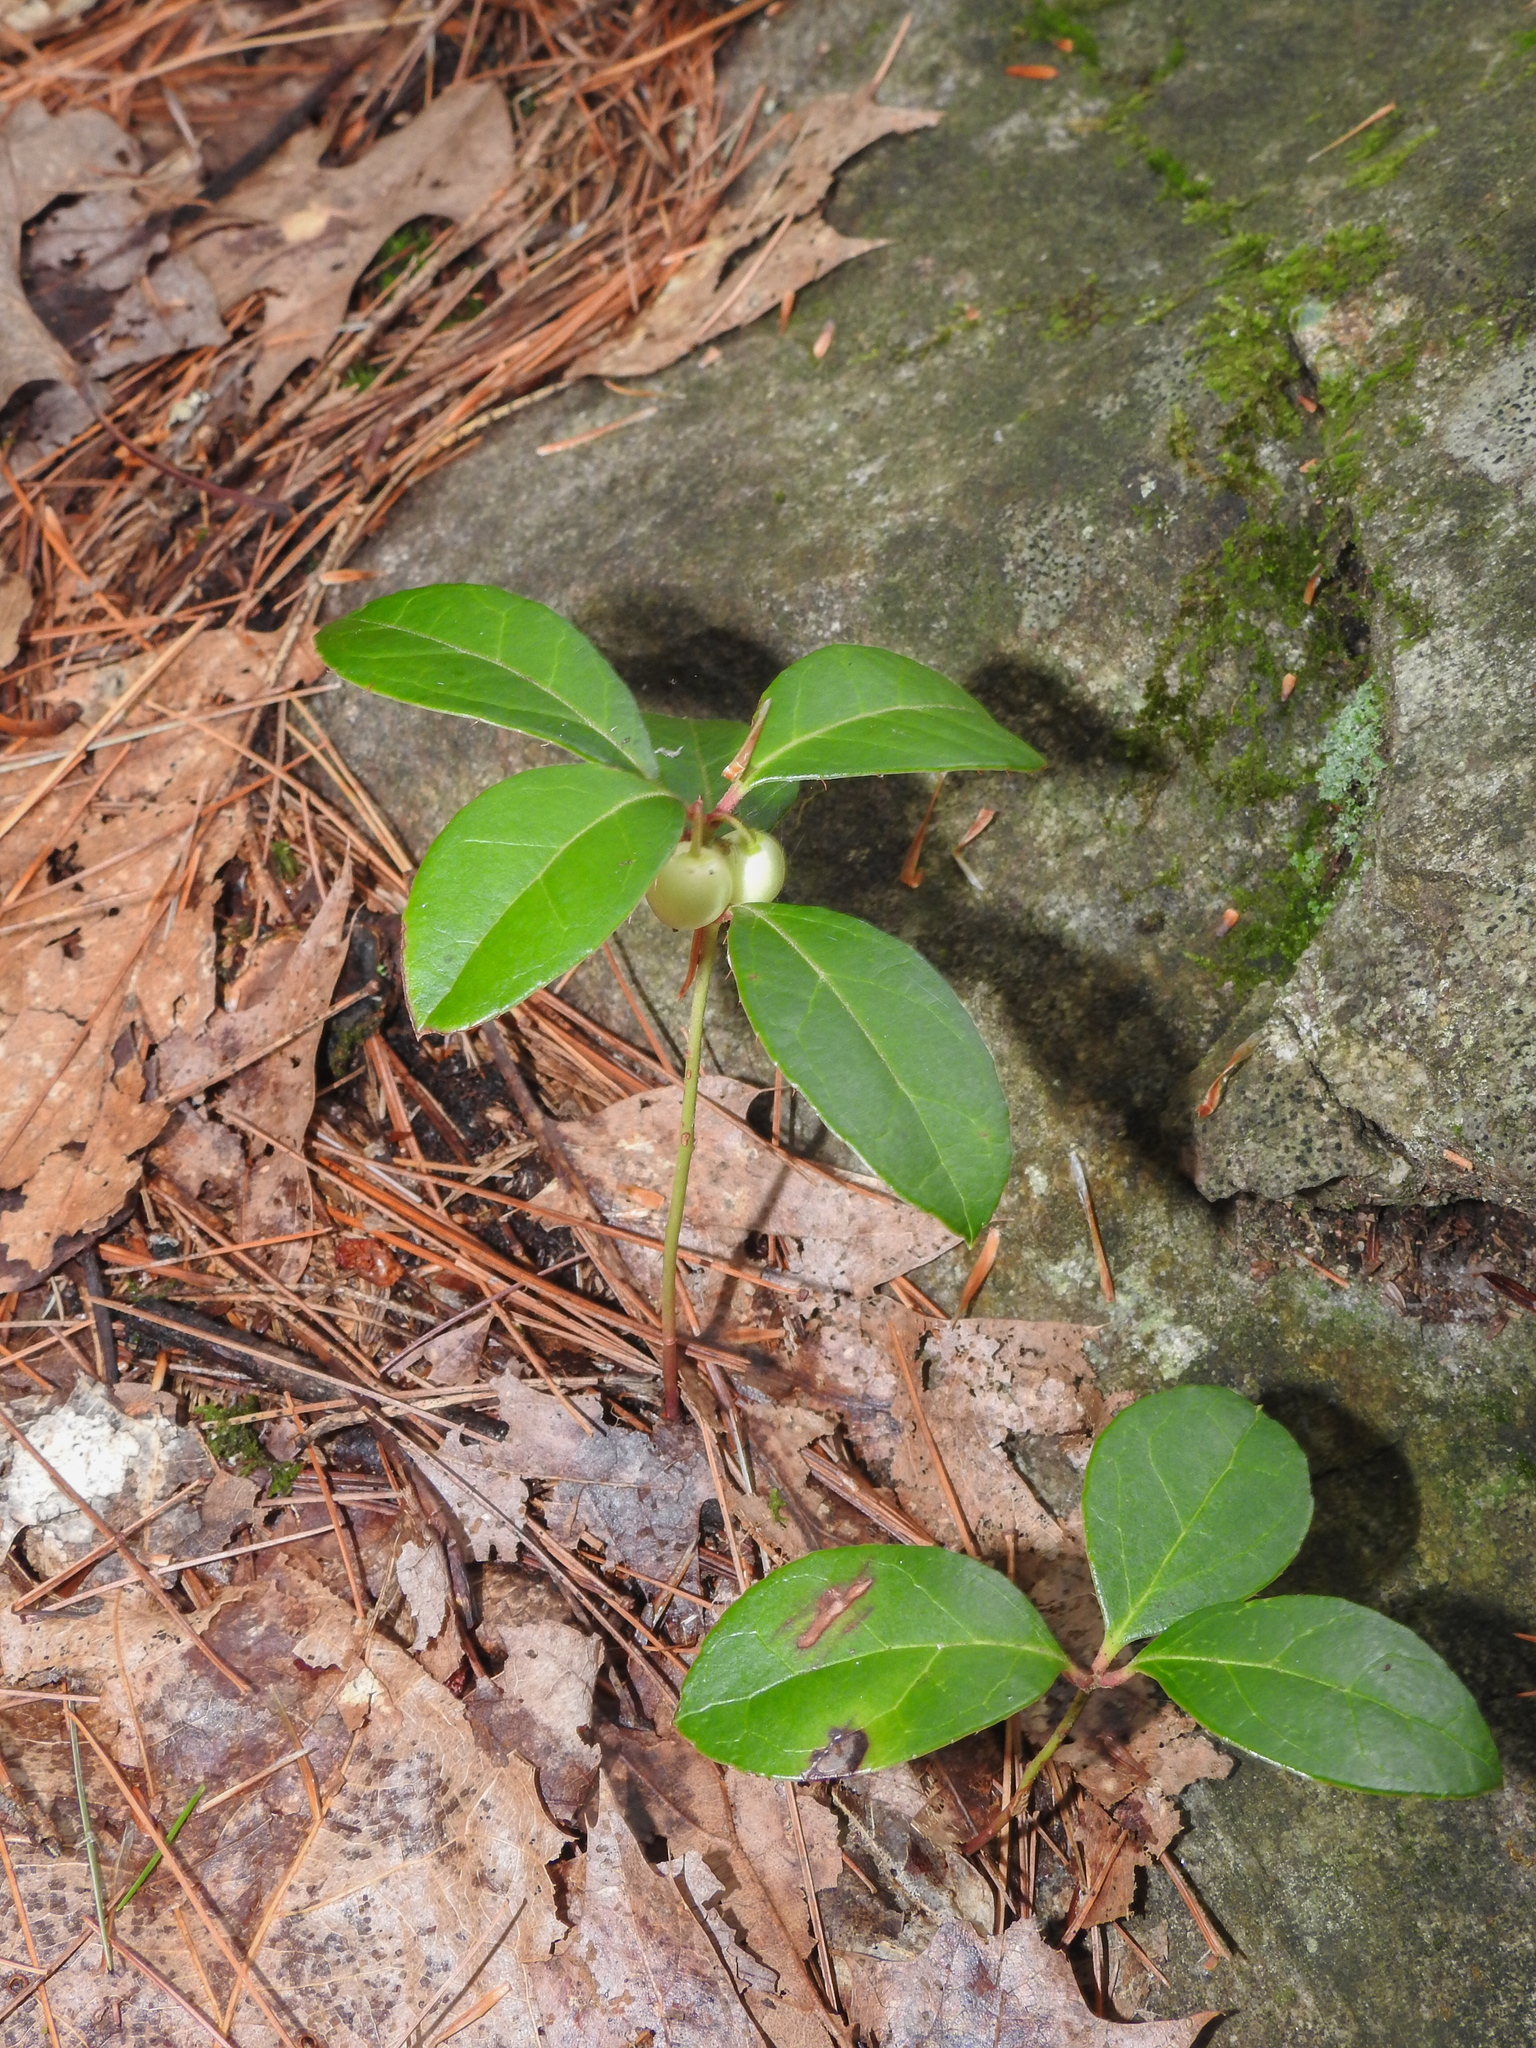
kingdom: Plantae
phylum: Tracheophyta
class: Magnoliopsida
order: Ericales
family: Ericaceae
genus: Gaultheria
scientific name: Gaultheria procumbens
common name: Checkerberry
